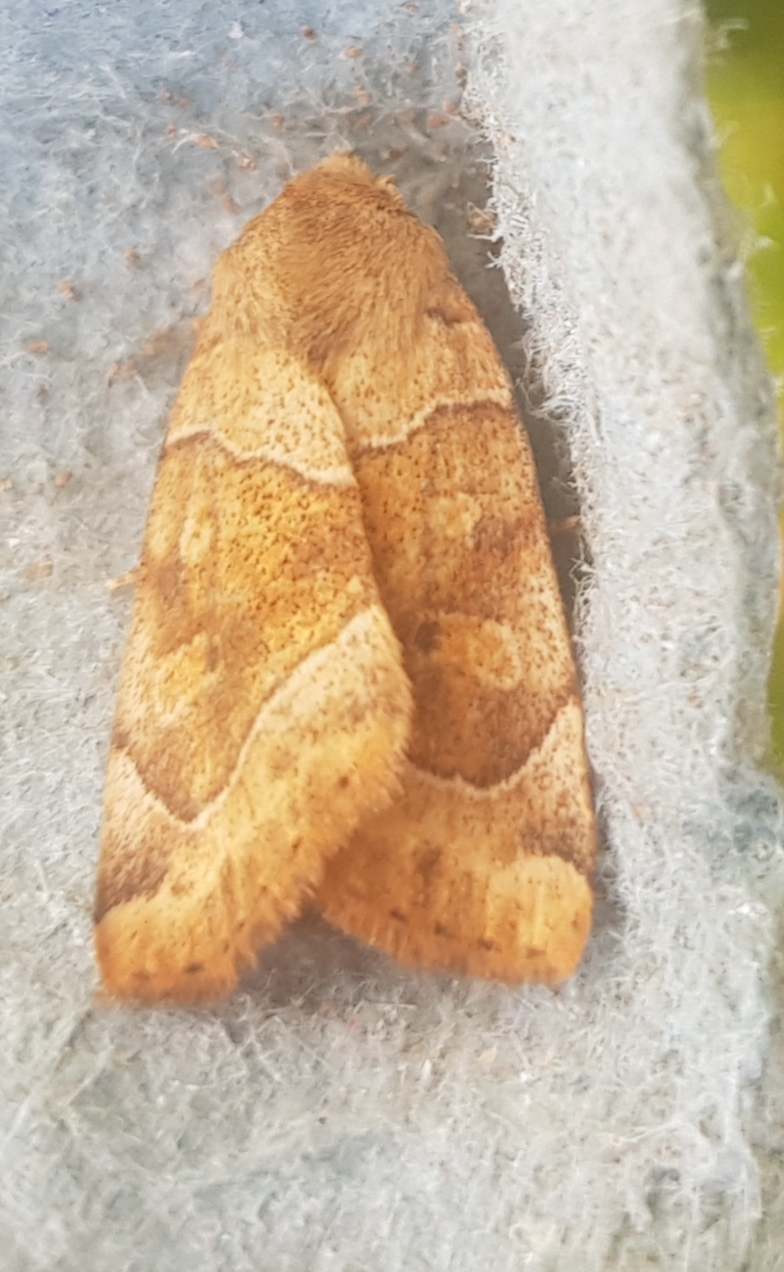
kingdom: Animalia
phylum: Arthropoda
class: Insecta
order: Lepidoptera
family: Noctuidae
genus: Cosmia
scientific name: Cosmia trapezina
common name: Dun-bar
